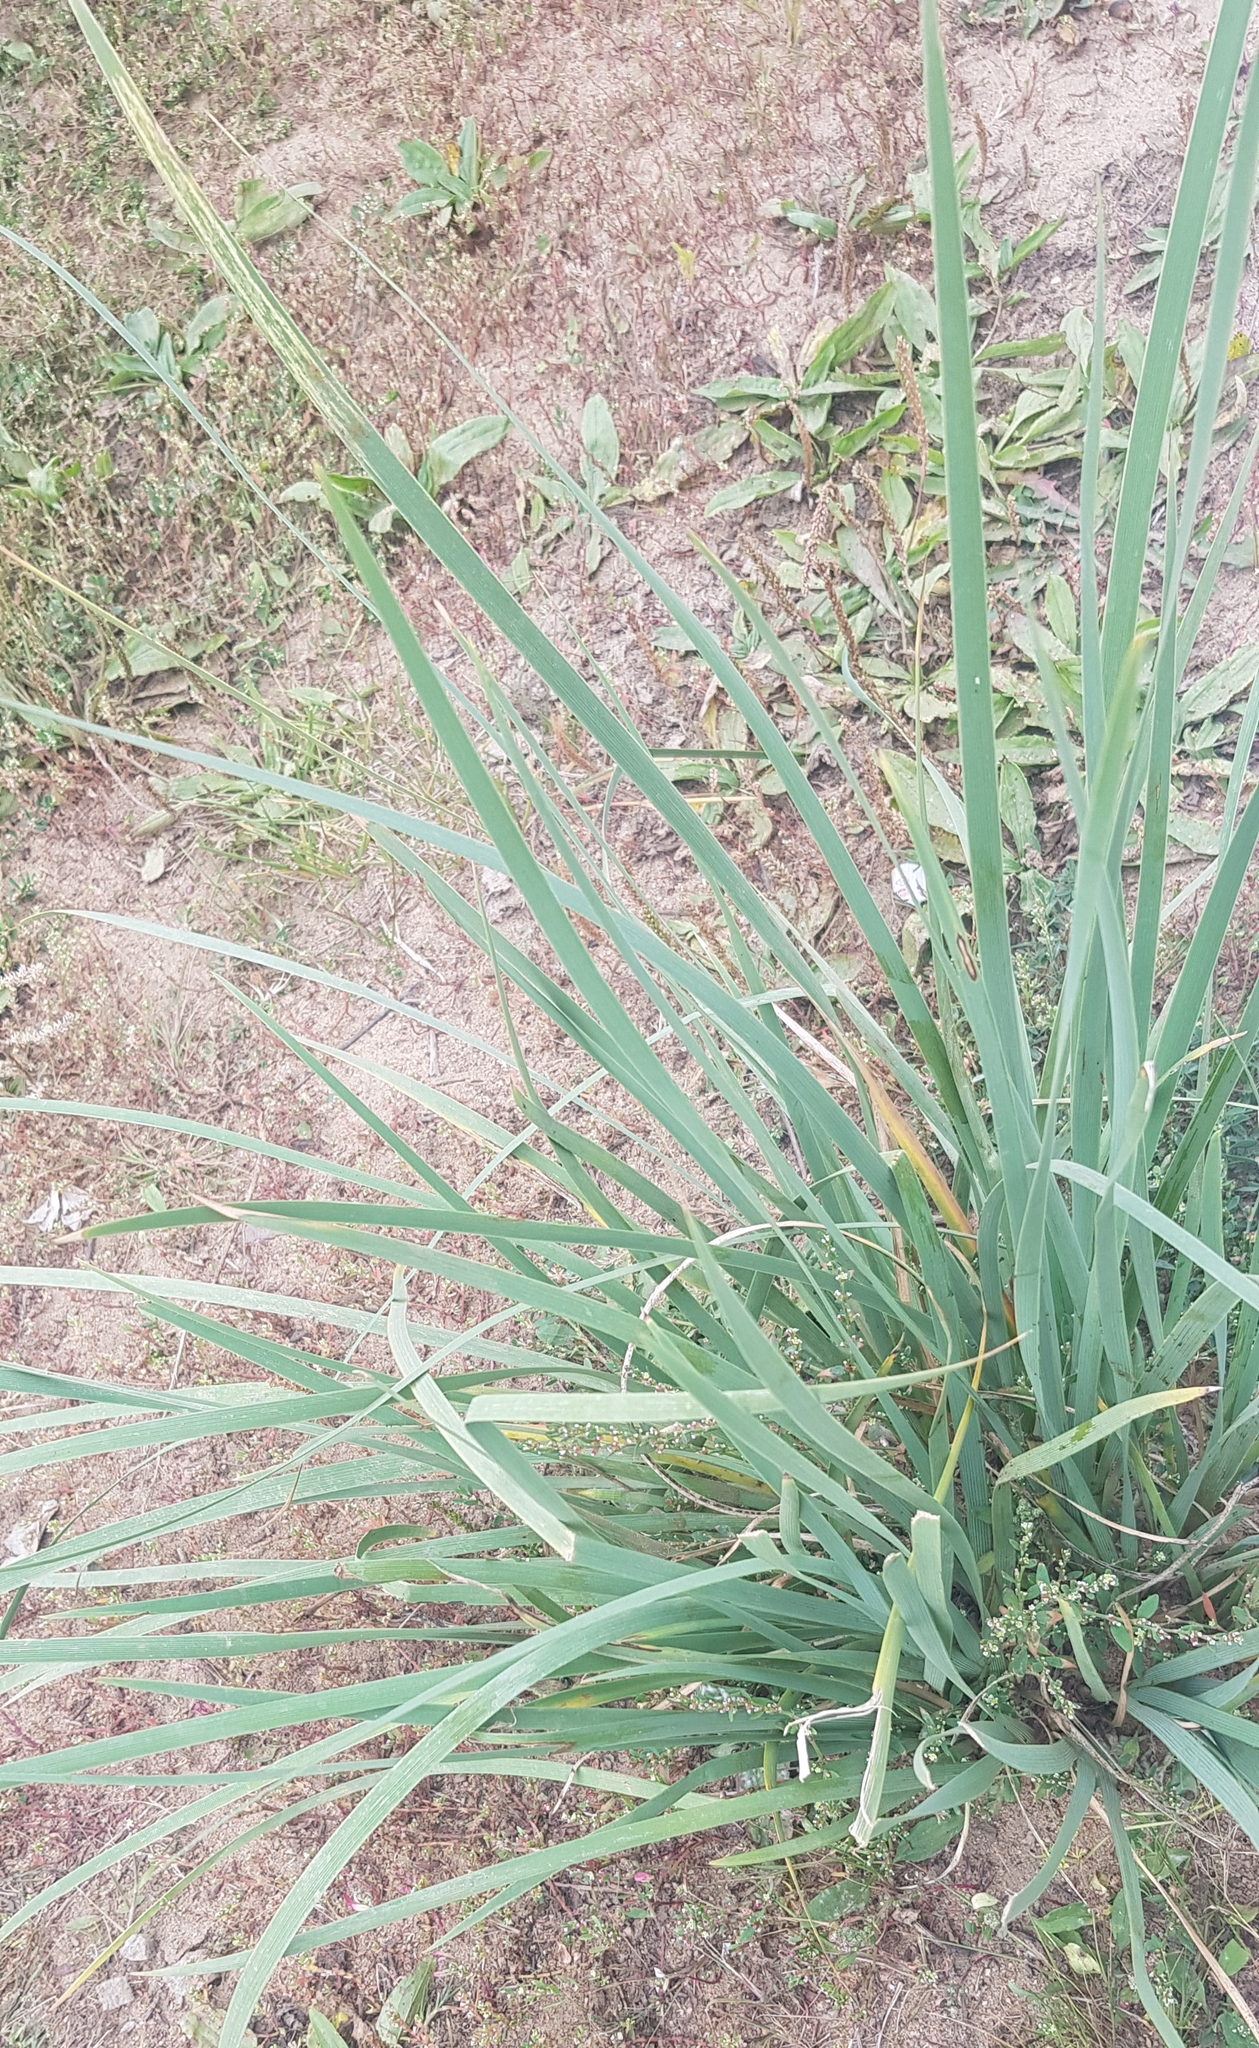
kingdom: Plantae
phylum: Tracheophyta
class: Liliopsida
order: Asparagales
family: Iridaceae
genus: Iris
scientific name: Iris lactea
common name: White-flower chinese iris
